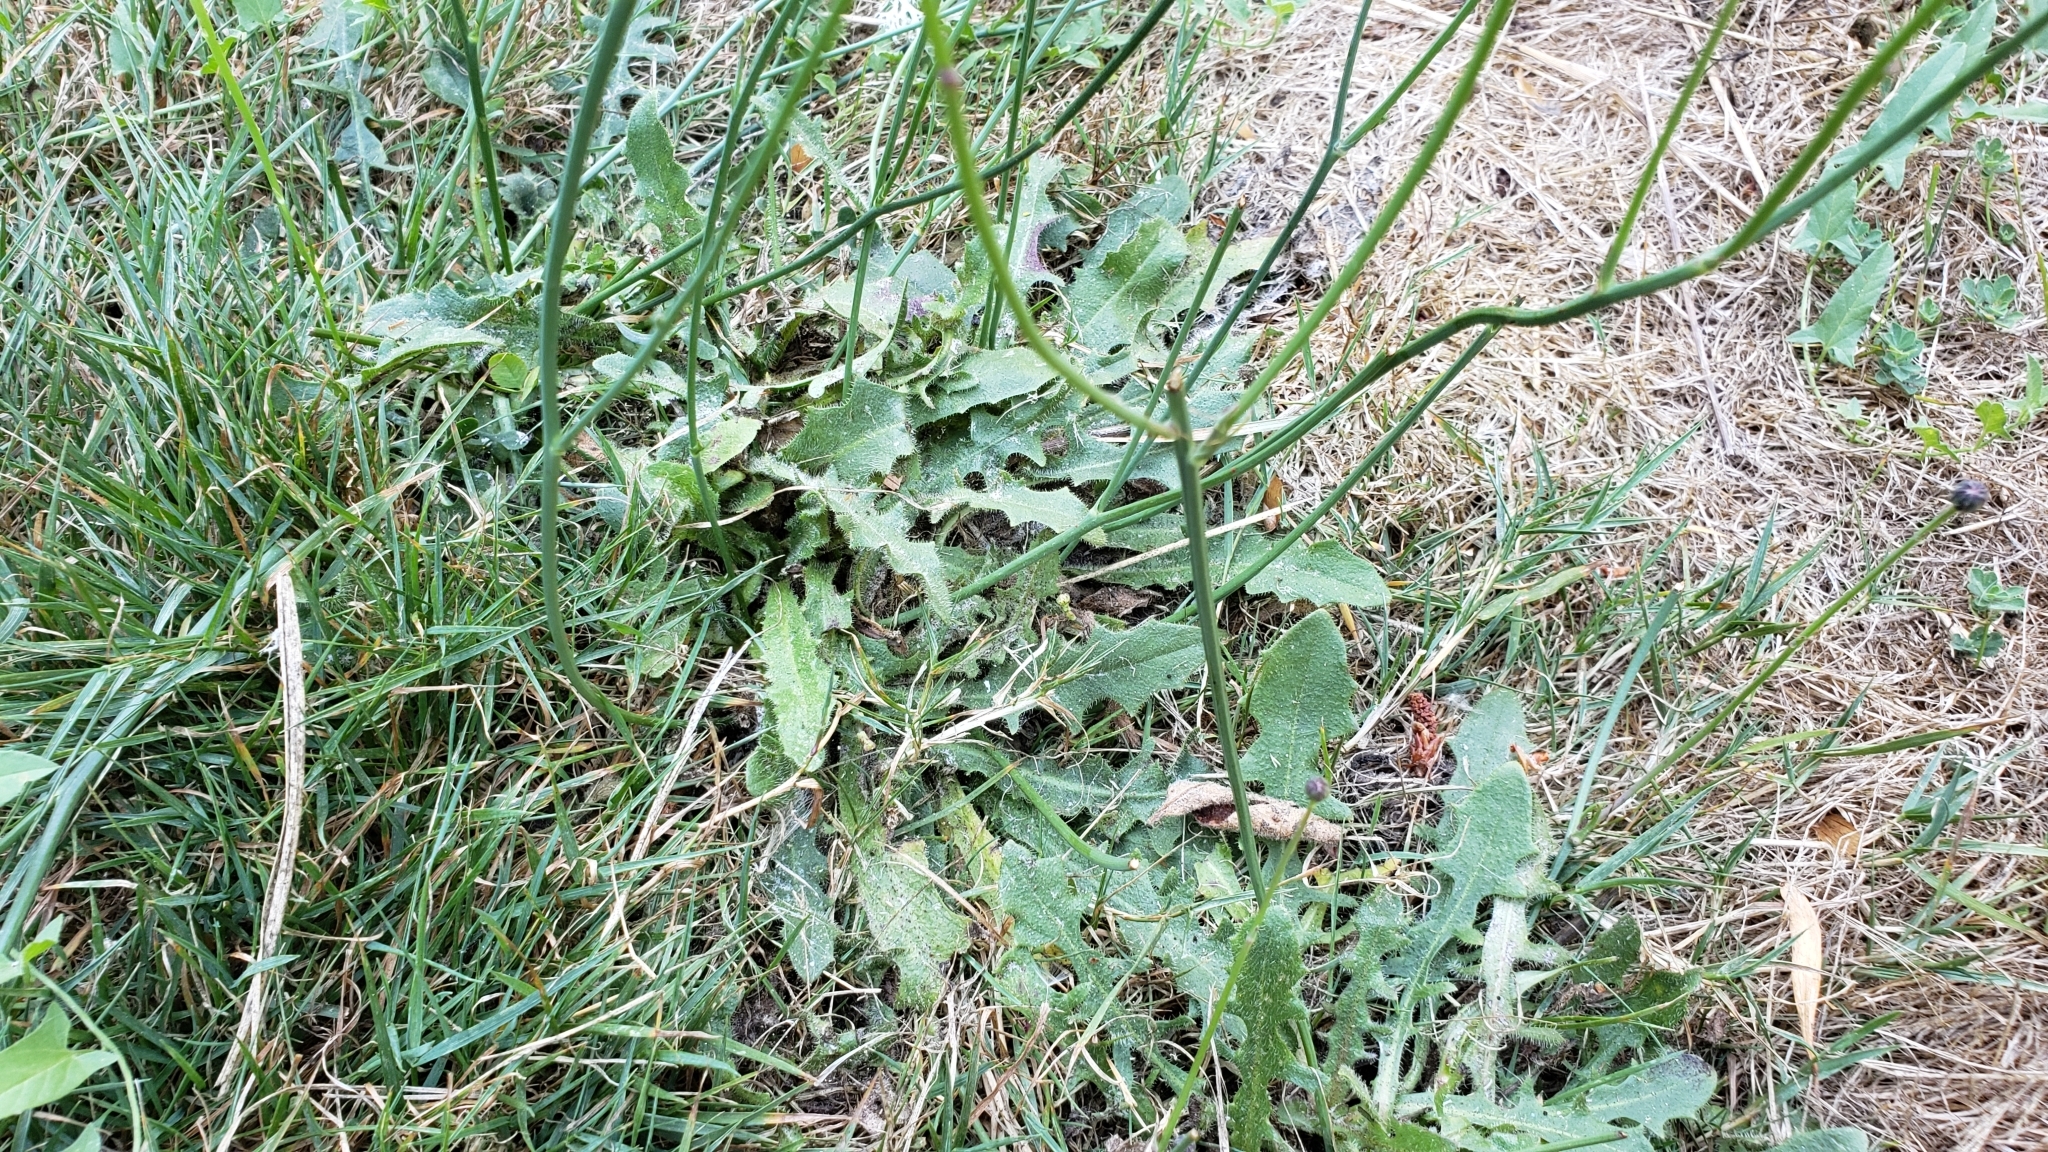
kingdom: Plantae
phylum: Tracheophyta
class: Magnoliopsida
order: Asterales
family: Asteraceae
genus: Hypochaeris
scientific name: Hypochaeris radicata
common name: Flatweed
